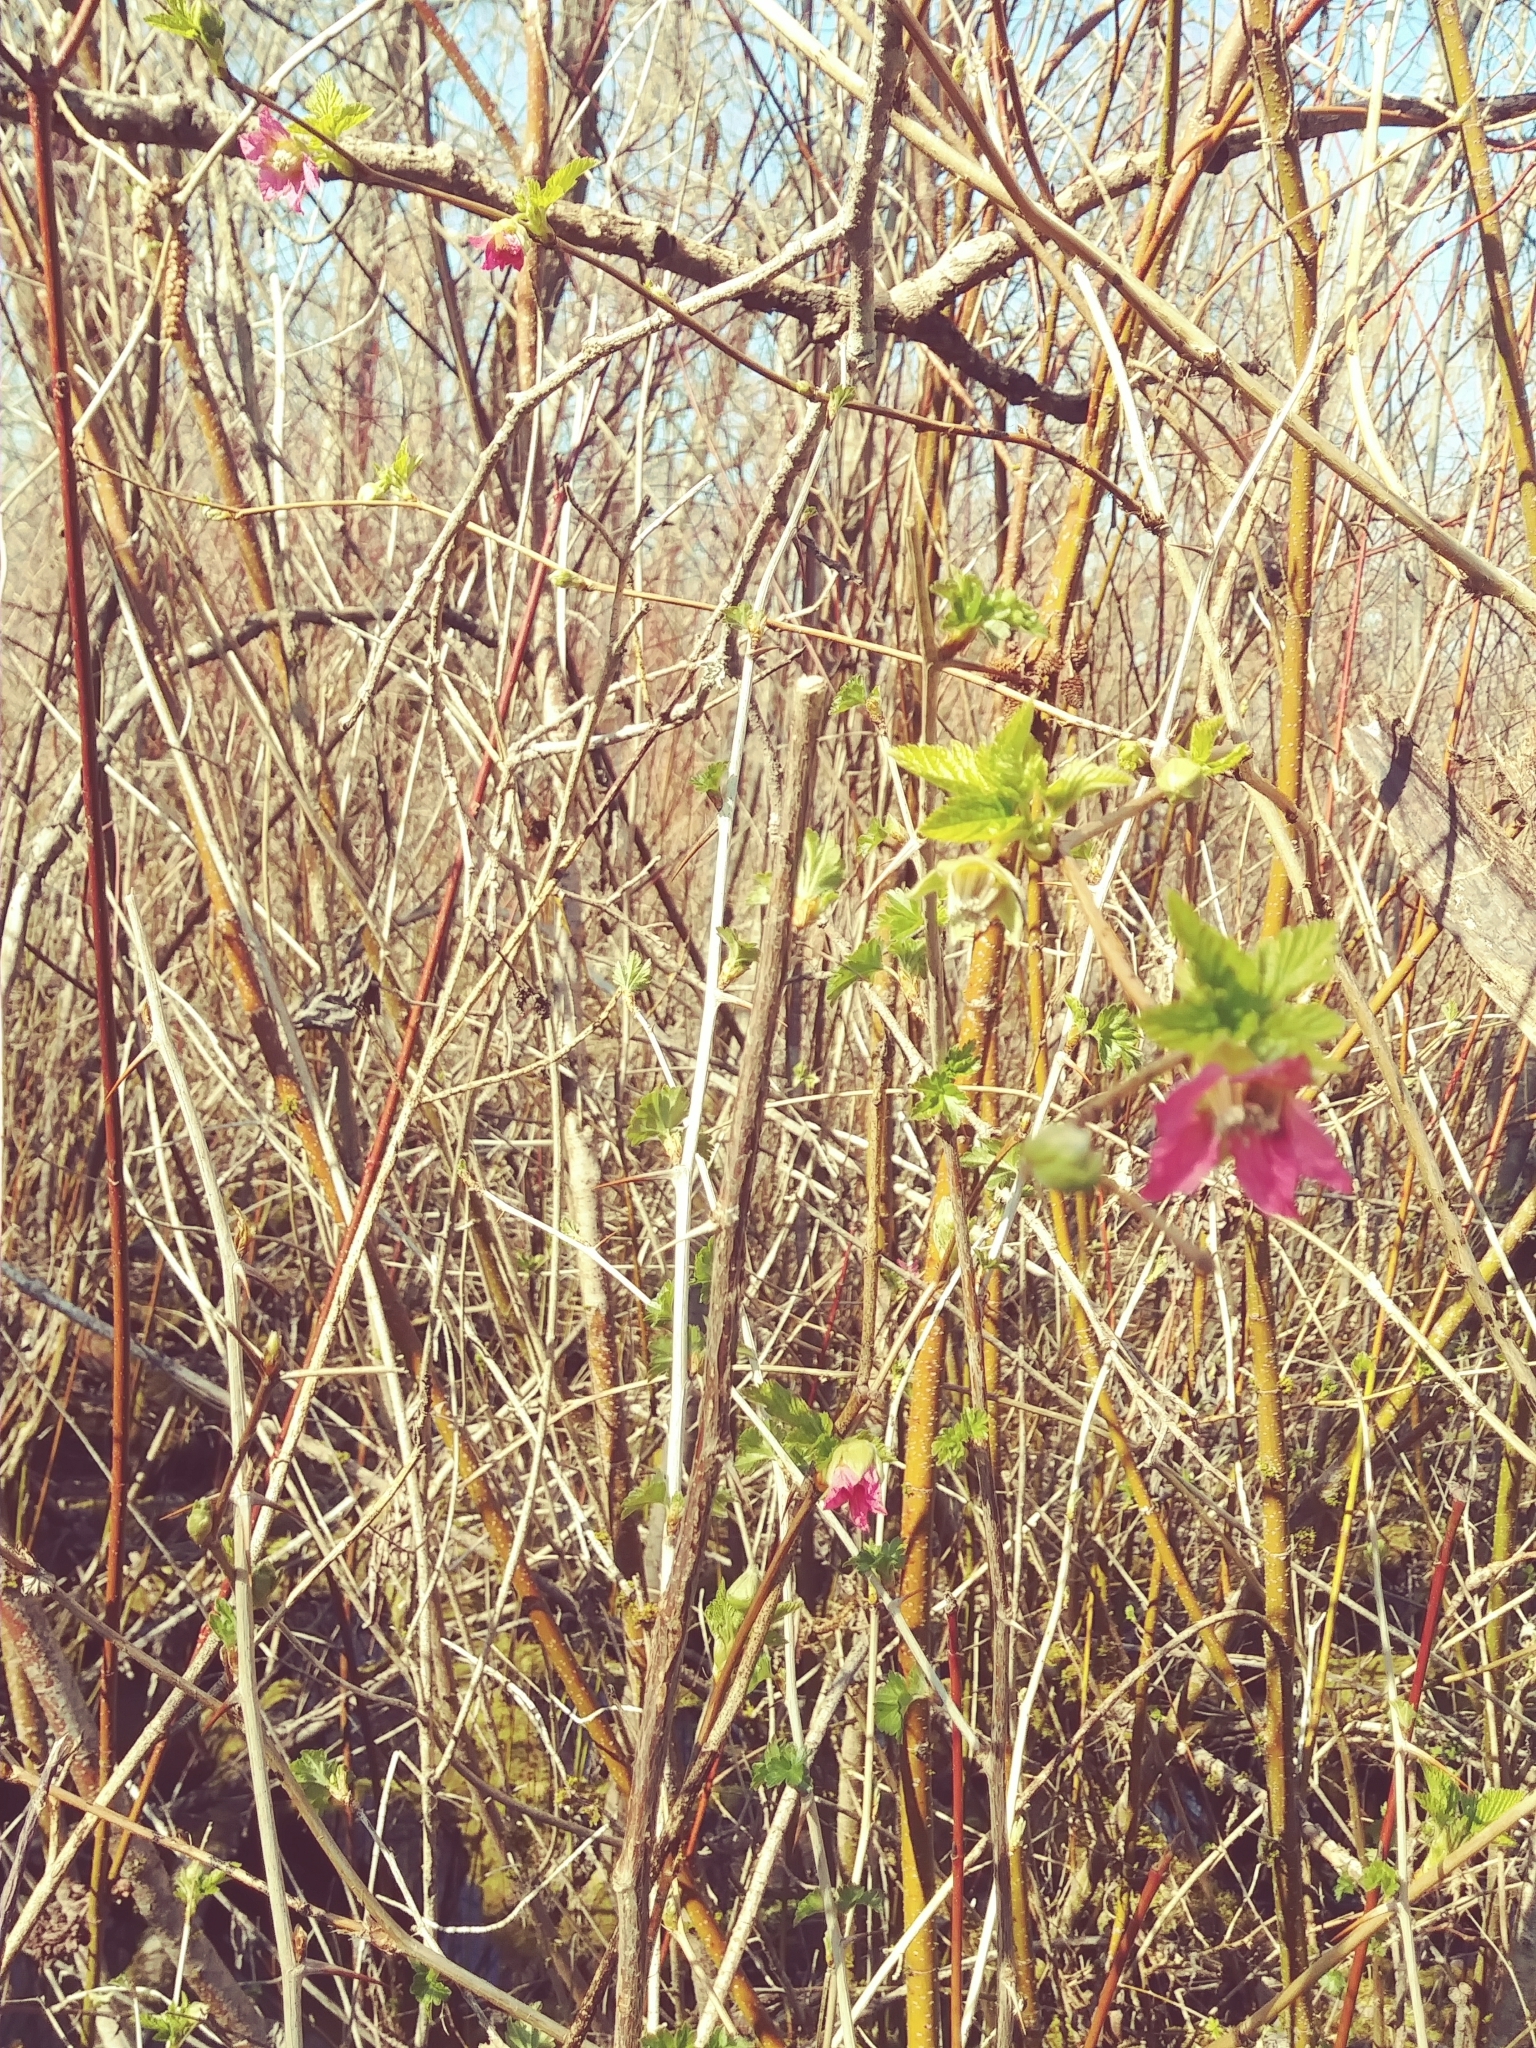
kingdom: Plantae
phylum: Tracheophyta
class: Magnoliopsida
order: Rosales
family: Rosaceae
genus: Rubus
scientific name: Rubus spectabilis
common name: Salmonberry
